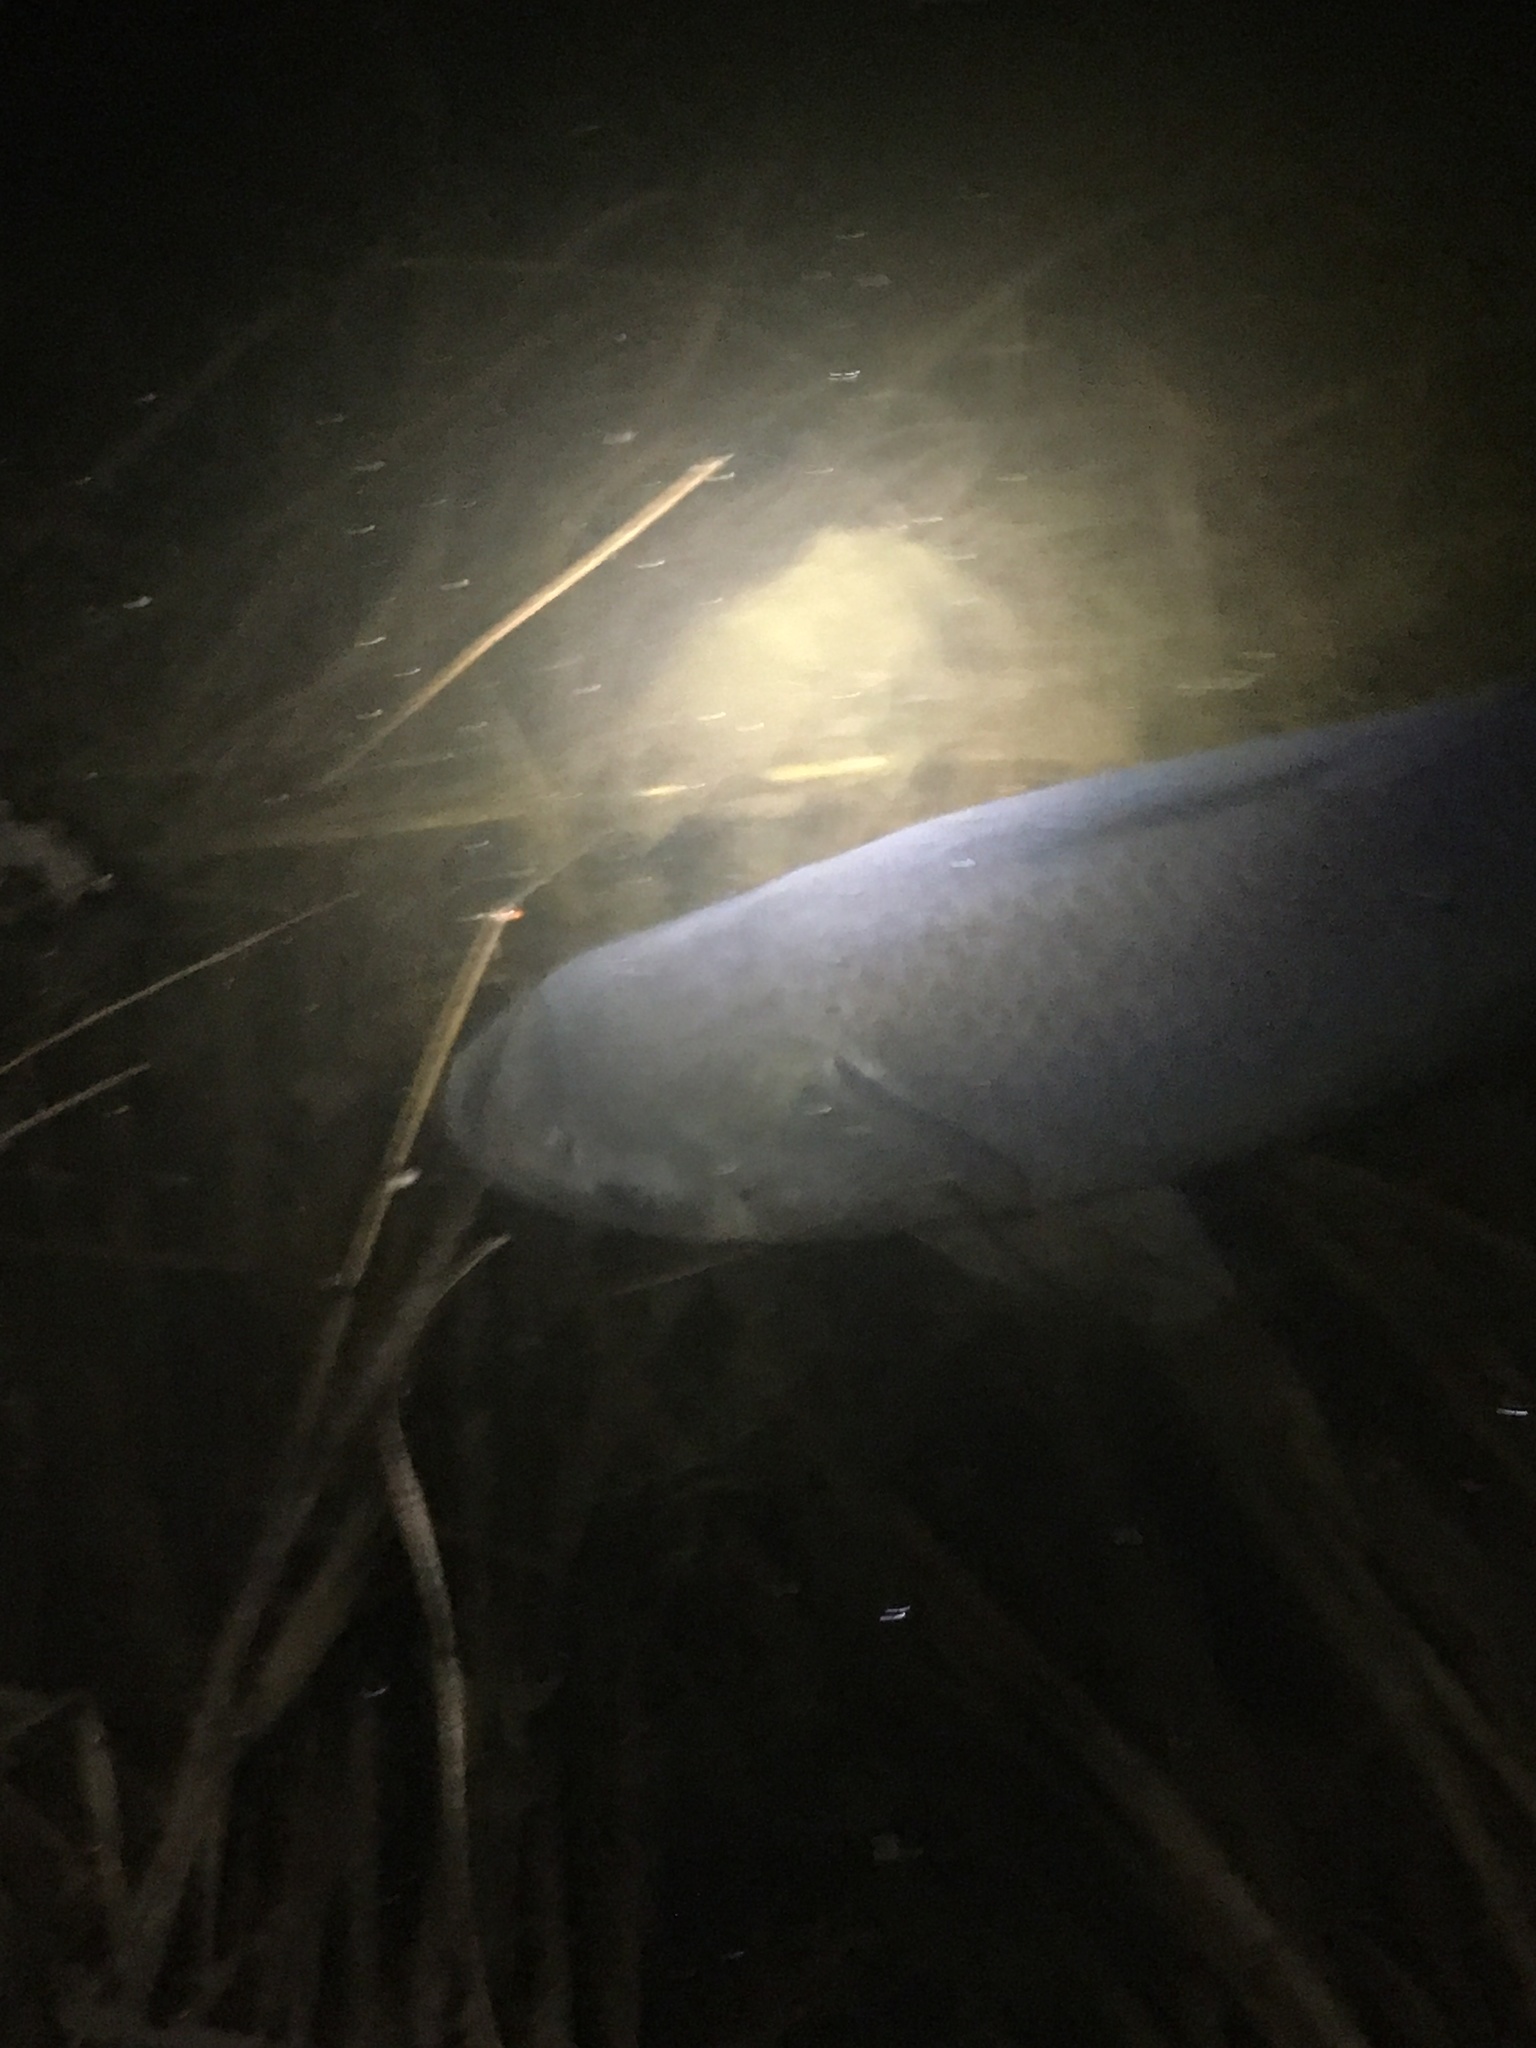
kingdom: Animalia
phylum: Chordata
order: Cypriniformes
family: Catostomidae
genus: Ictiobus
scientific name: Ictiobus cyprinellus
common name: Bigmouth buffalo
